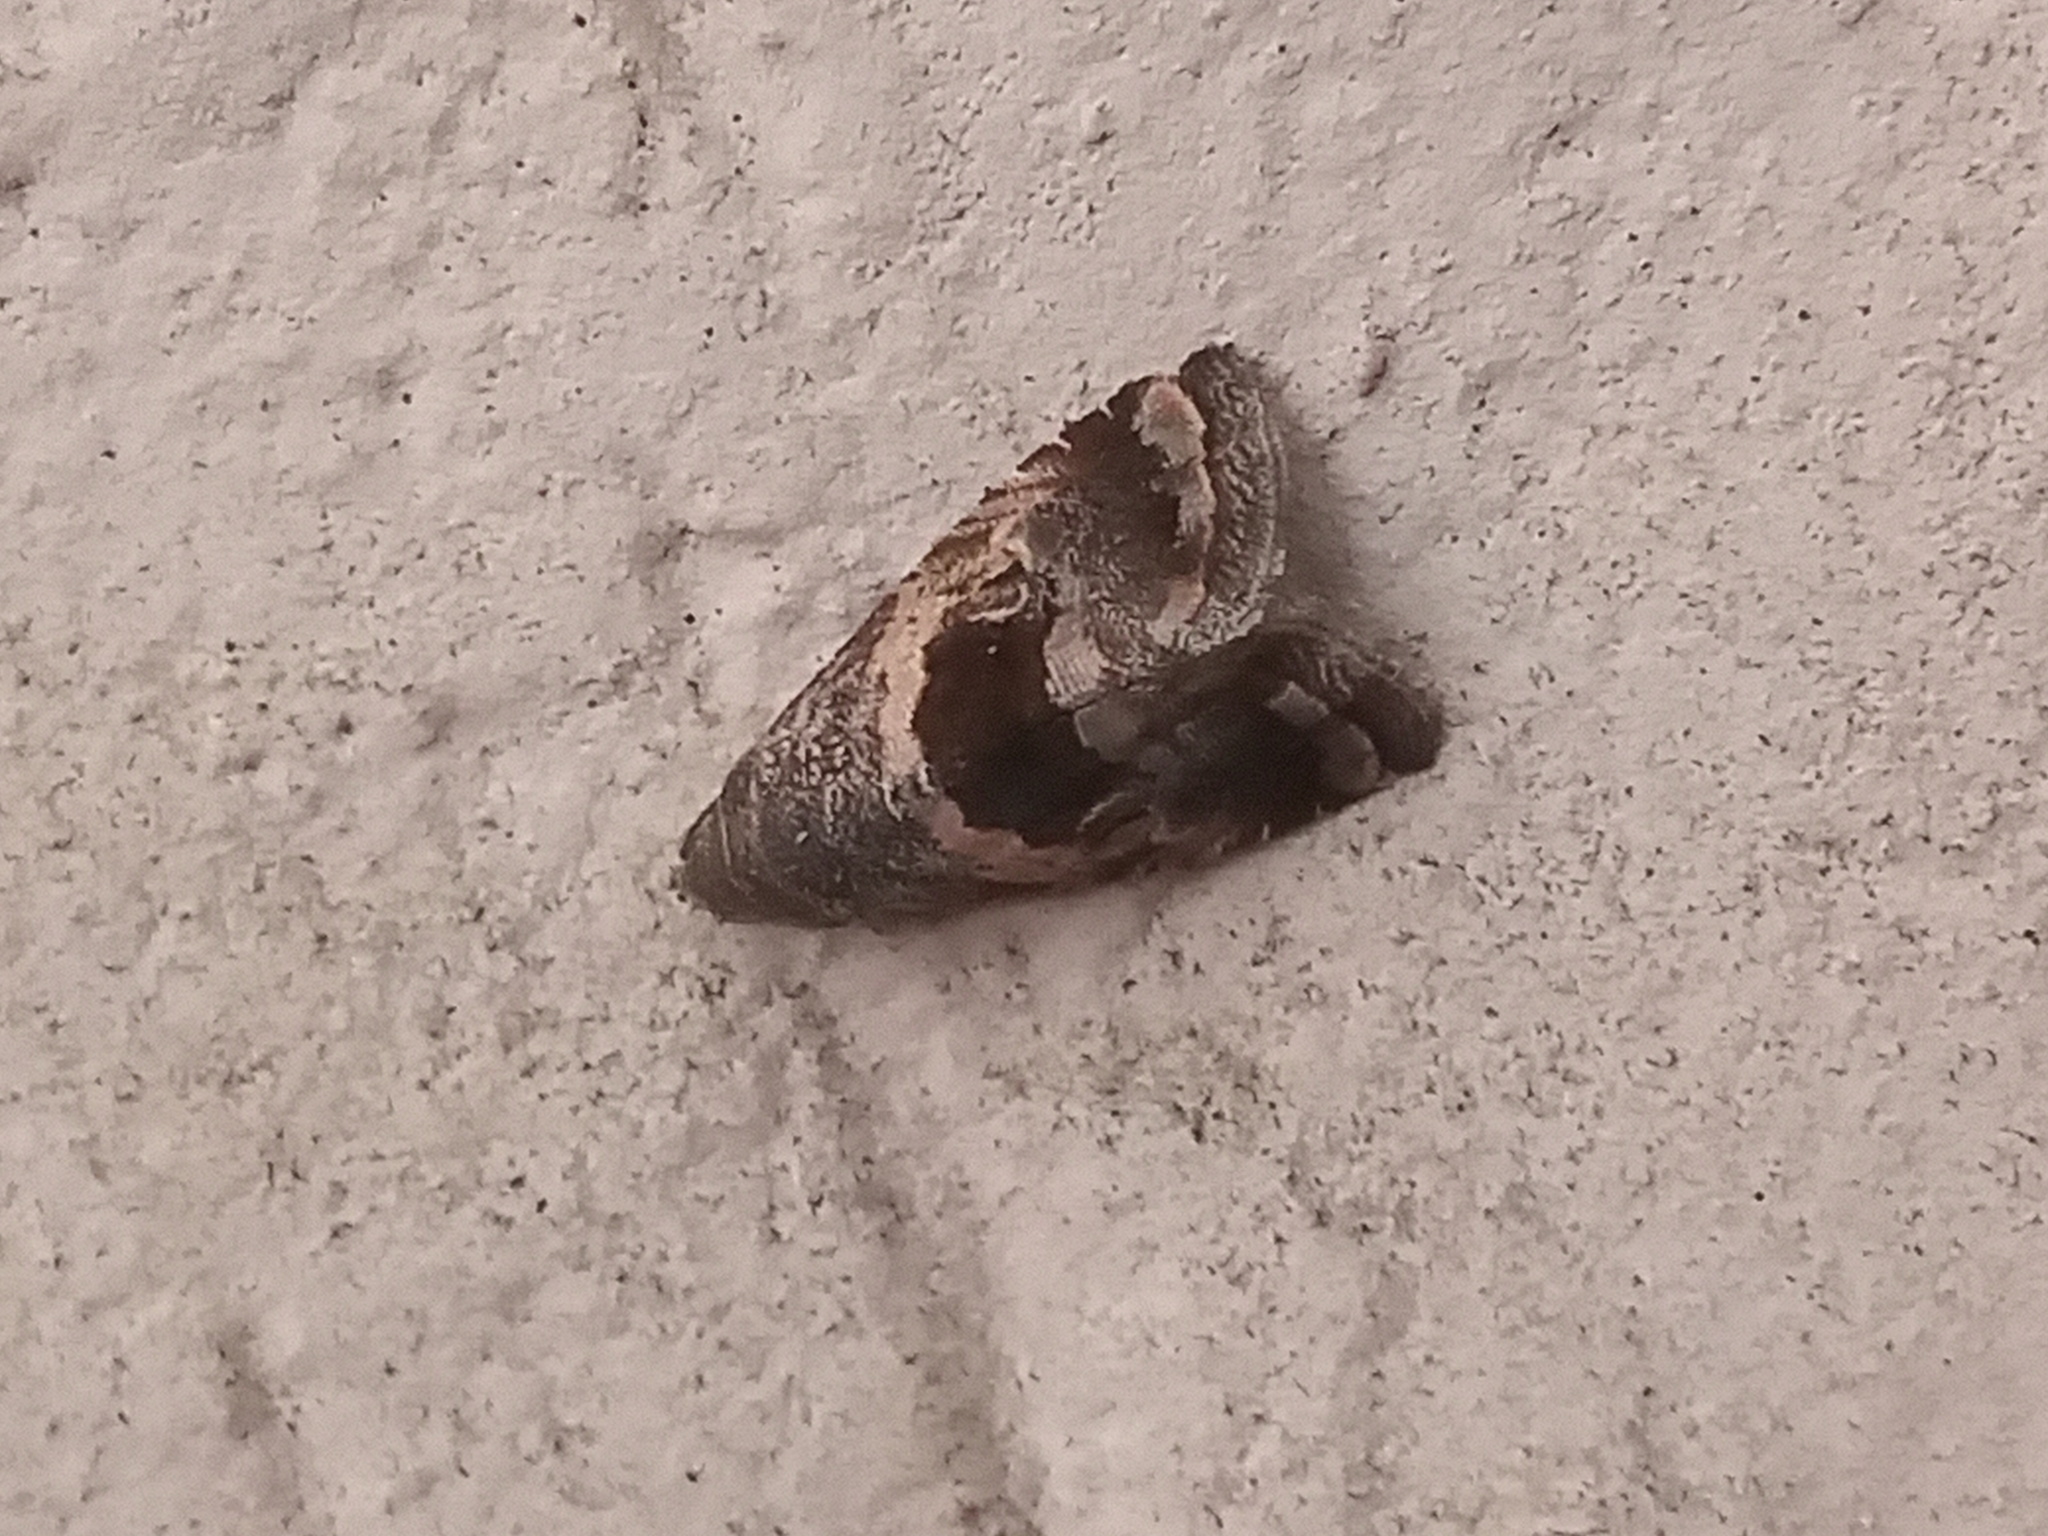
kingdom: Animalia
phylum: Arthropoda
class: Insecta
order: Lepidoptera
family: Noctuidae
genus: Tripudia
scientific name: Tripudia quadrifera
